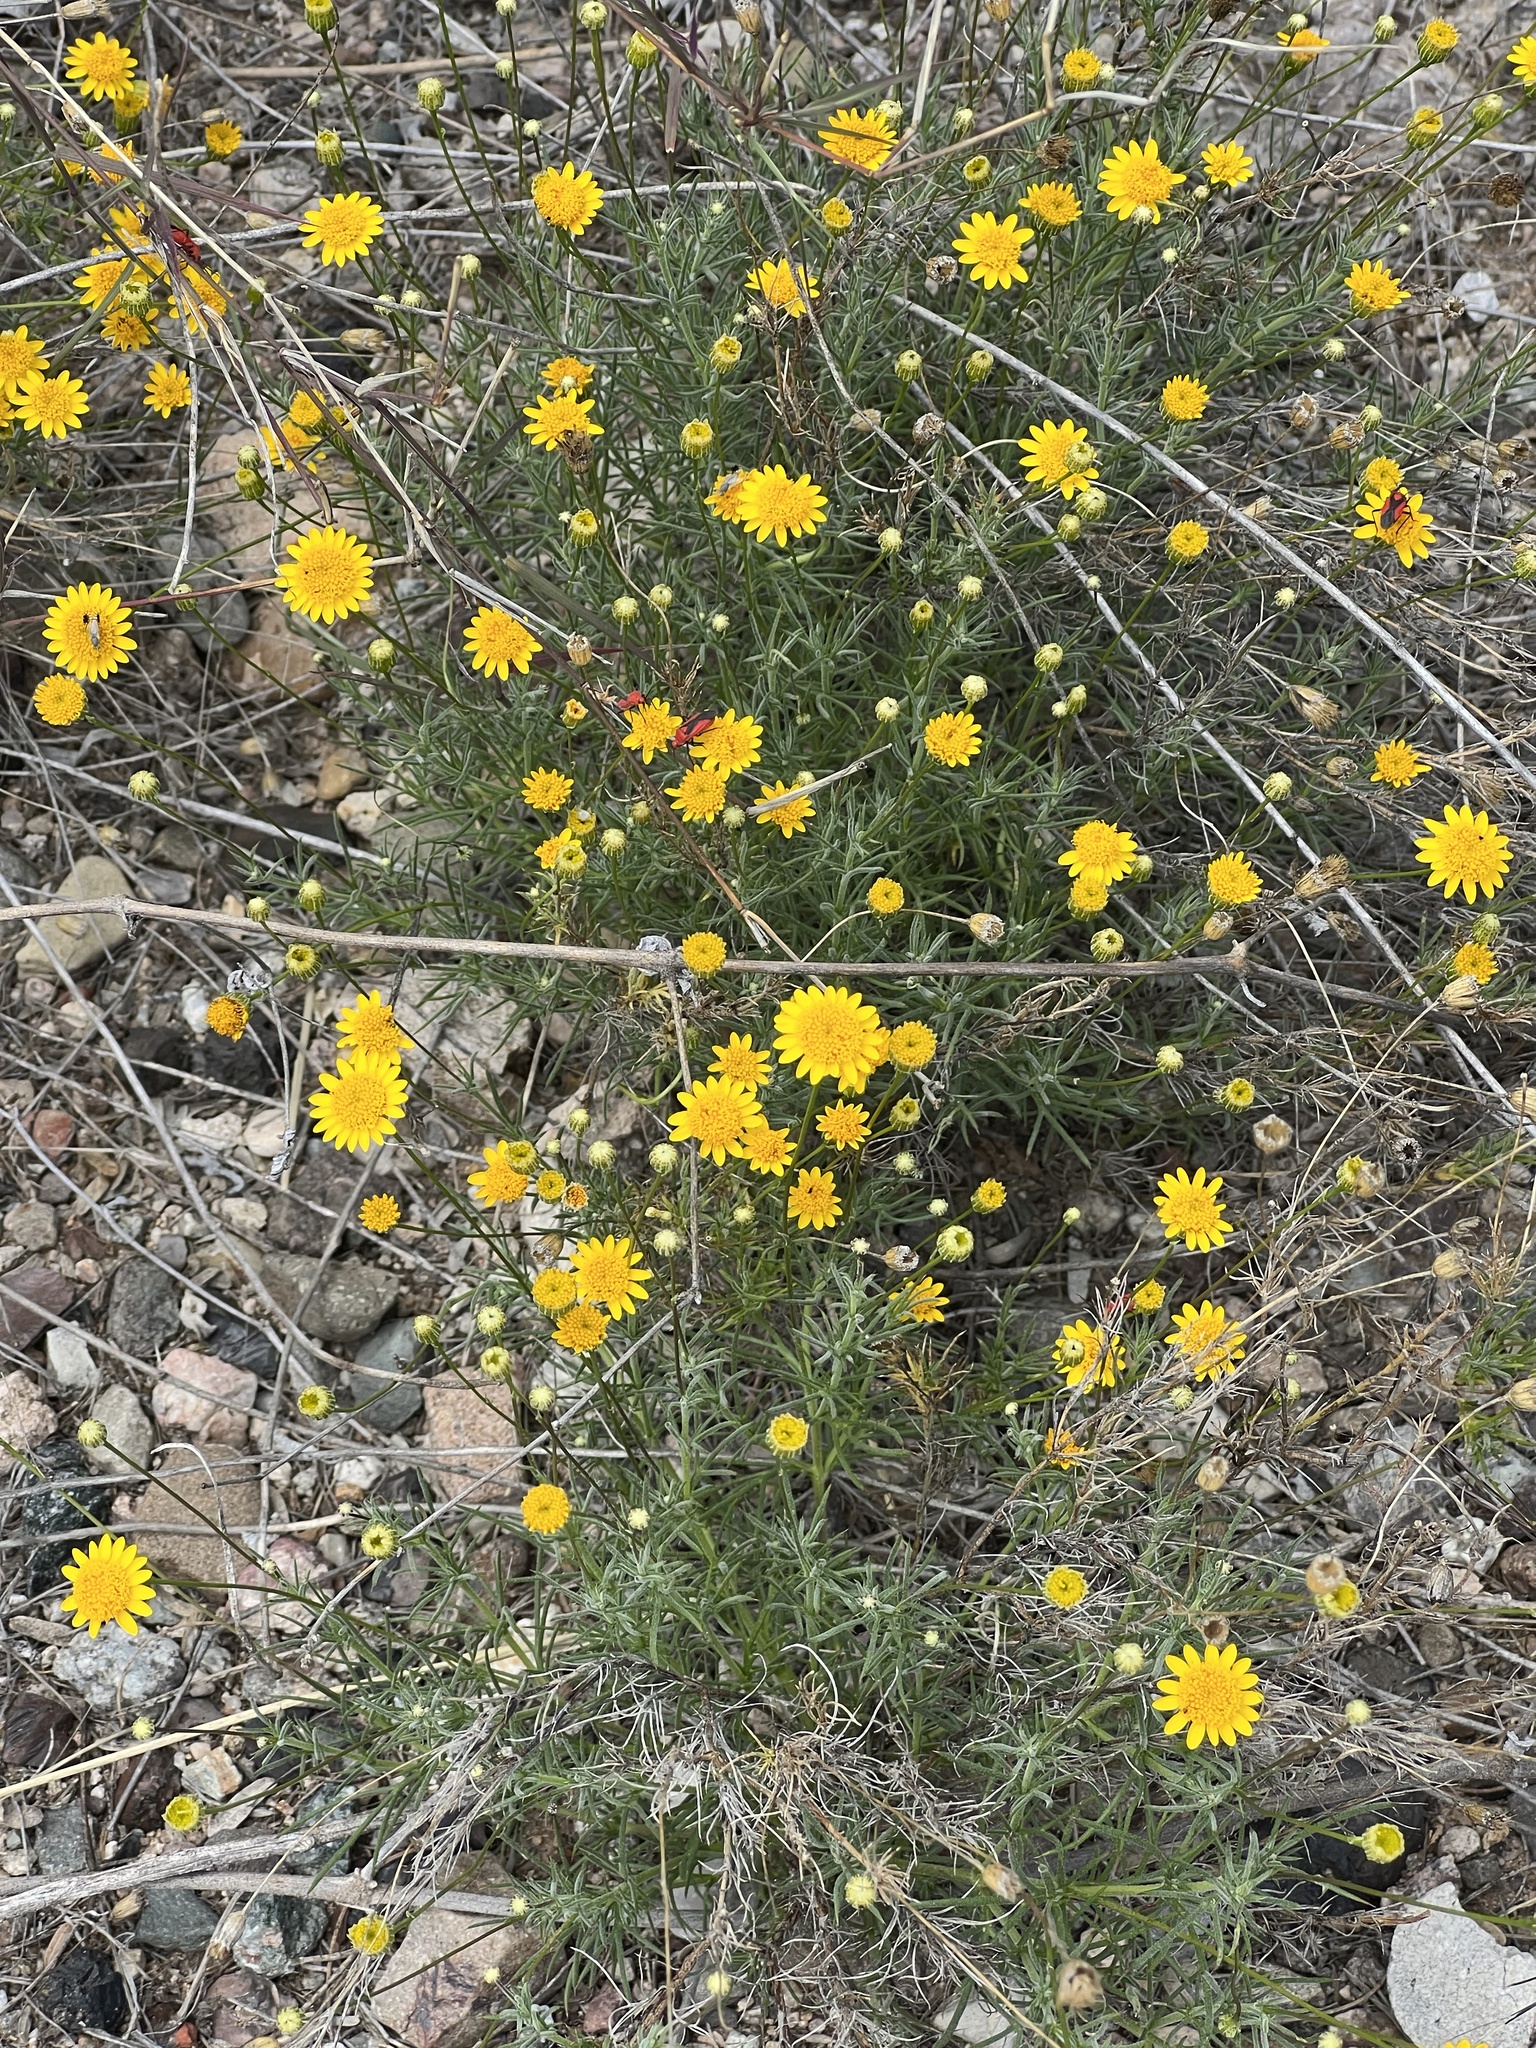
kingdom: Plantae
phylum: Tracheophyta
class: Magnoliopsida
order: Asterales
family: Asteraceae
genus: Thymophylla
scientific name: Thymophylla pentachaeta
